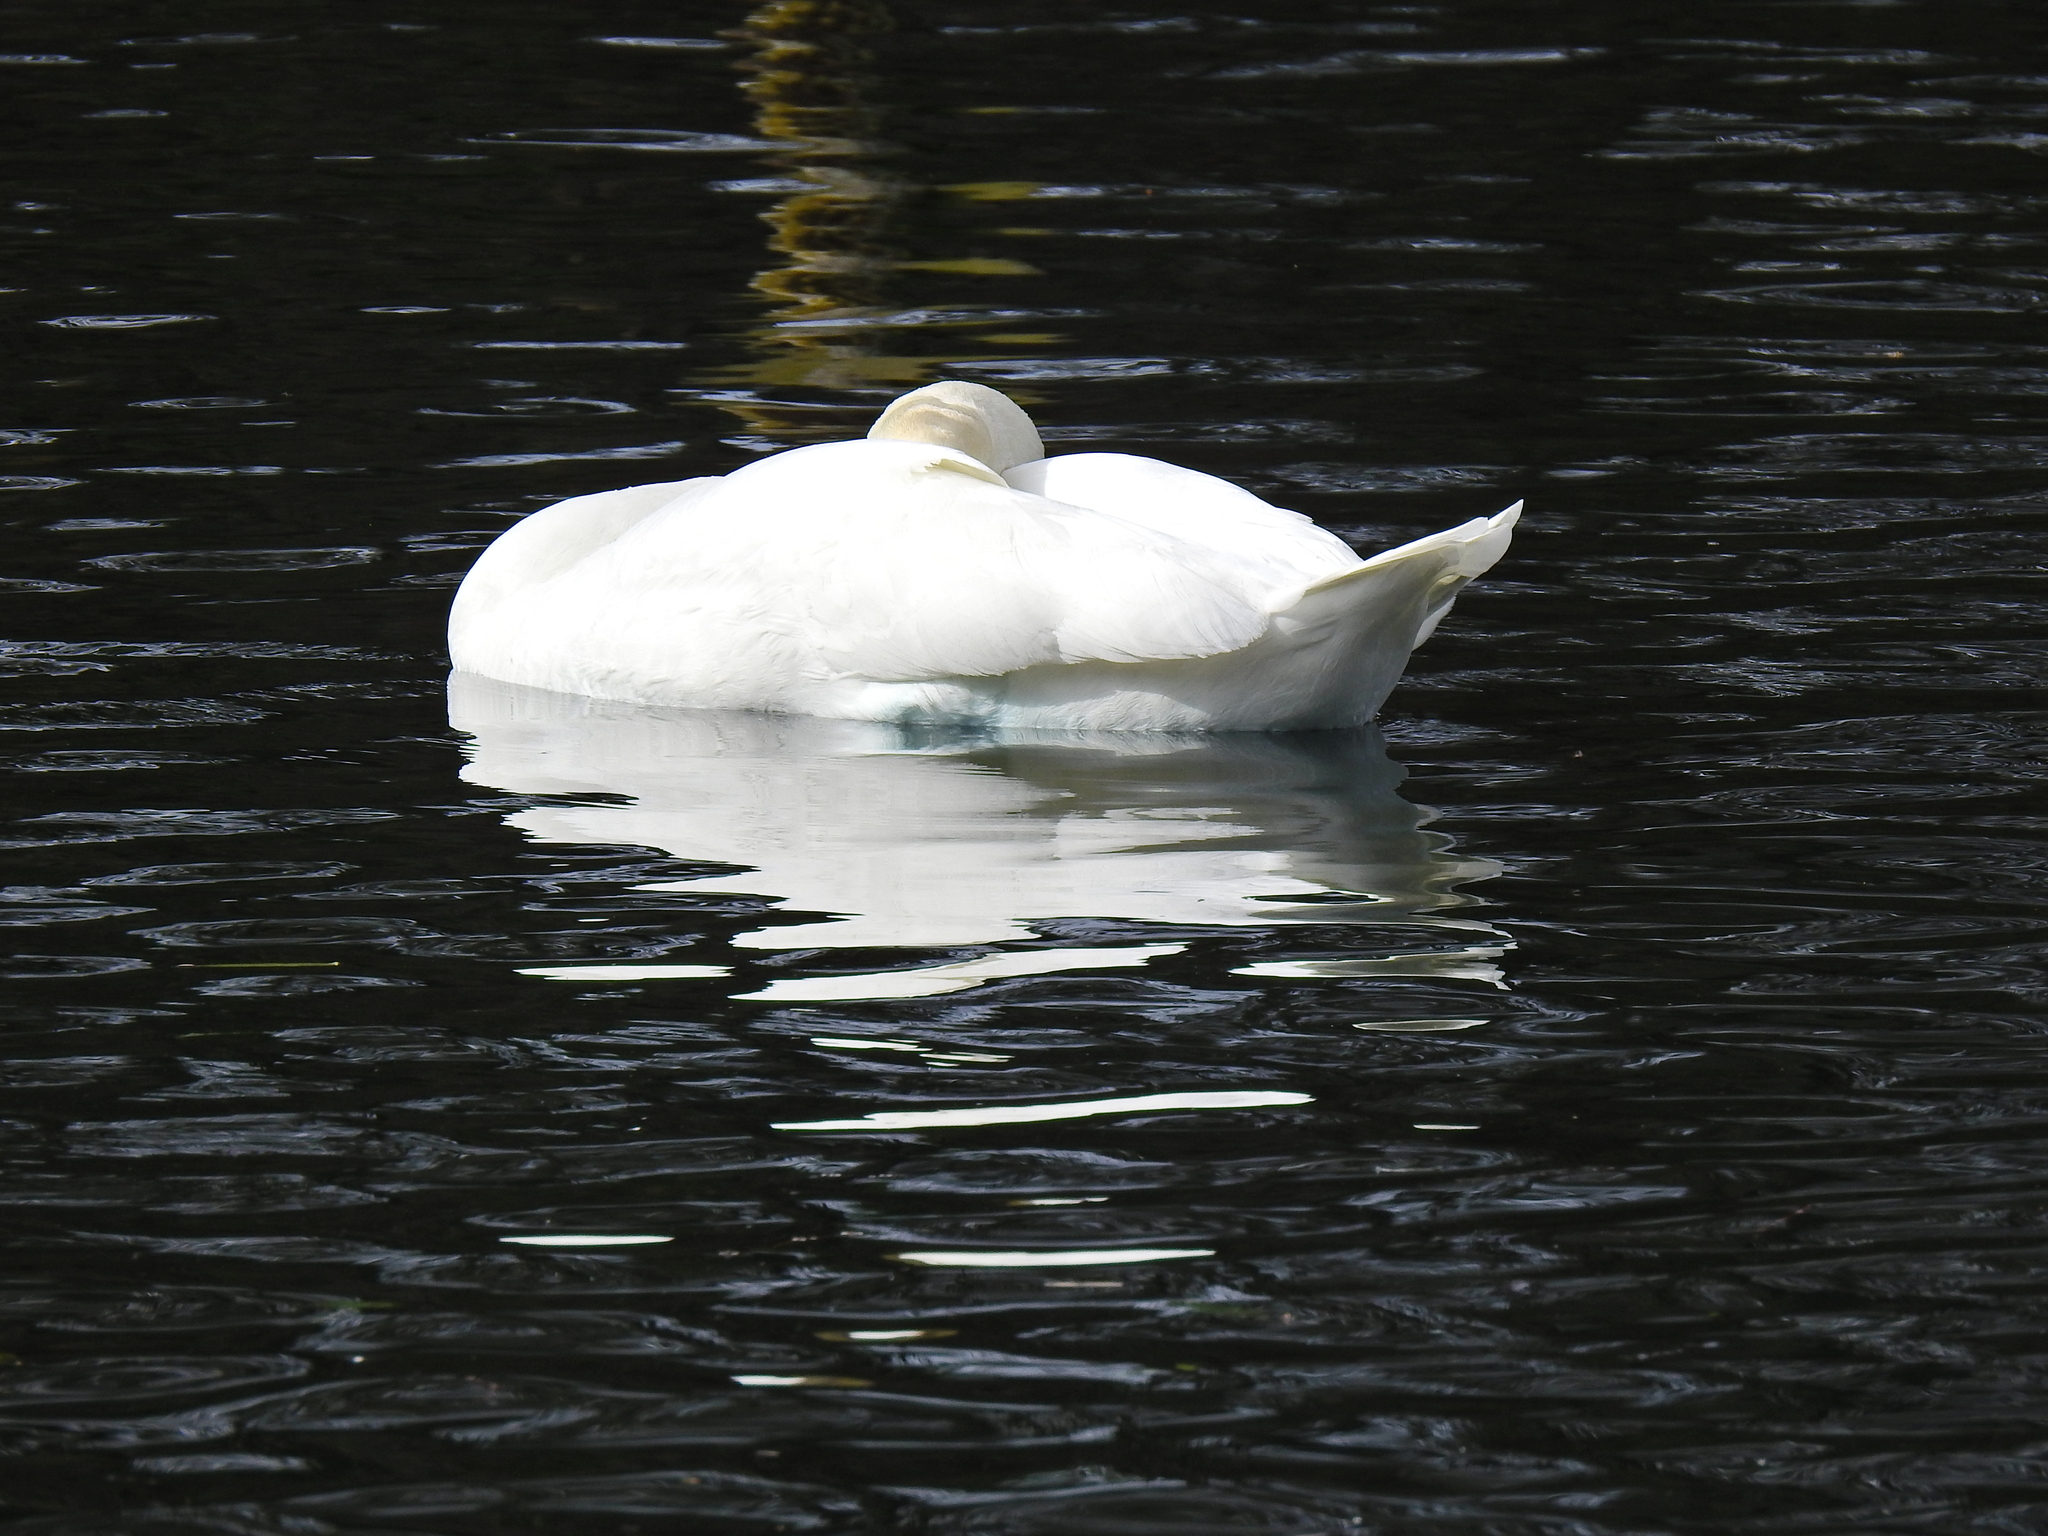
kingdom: Animalia
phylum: Chordata
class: Aves
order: Anseriformes
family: Anatidae
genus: Cygnus
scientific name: Cygnus olor
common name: Mute swan
